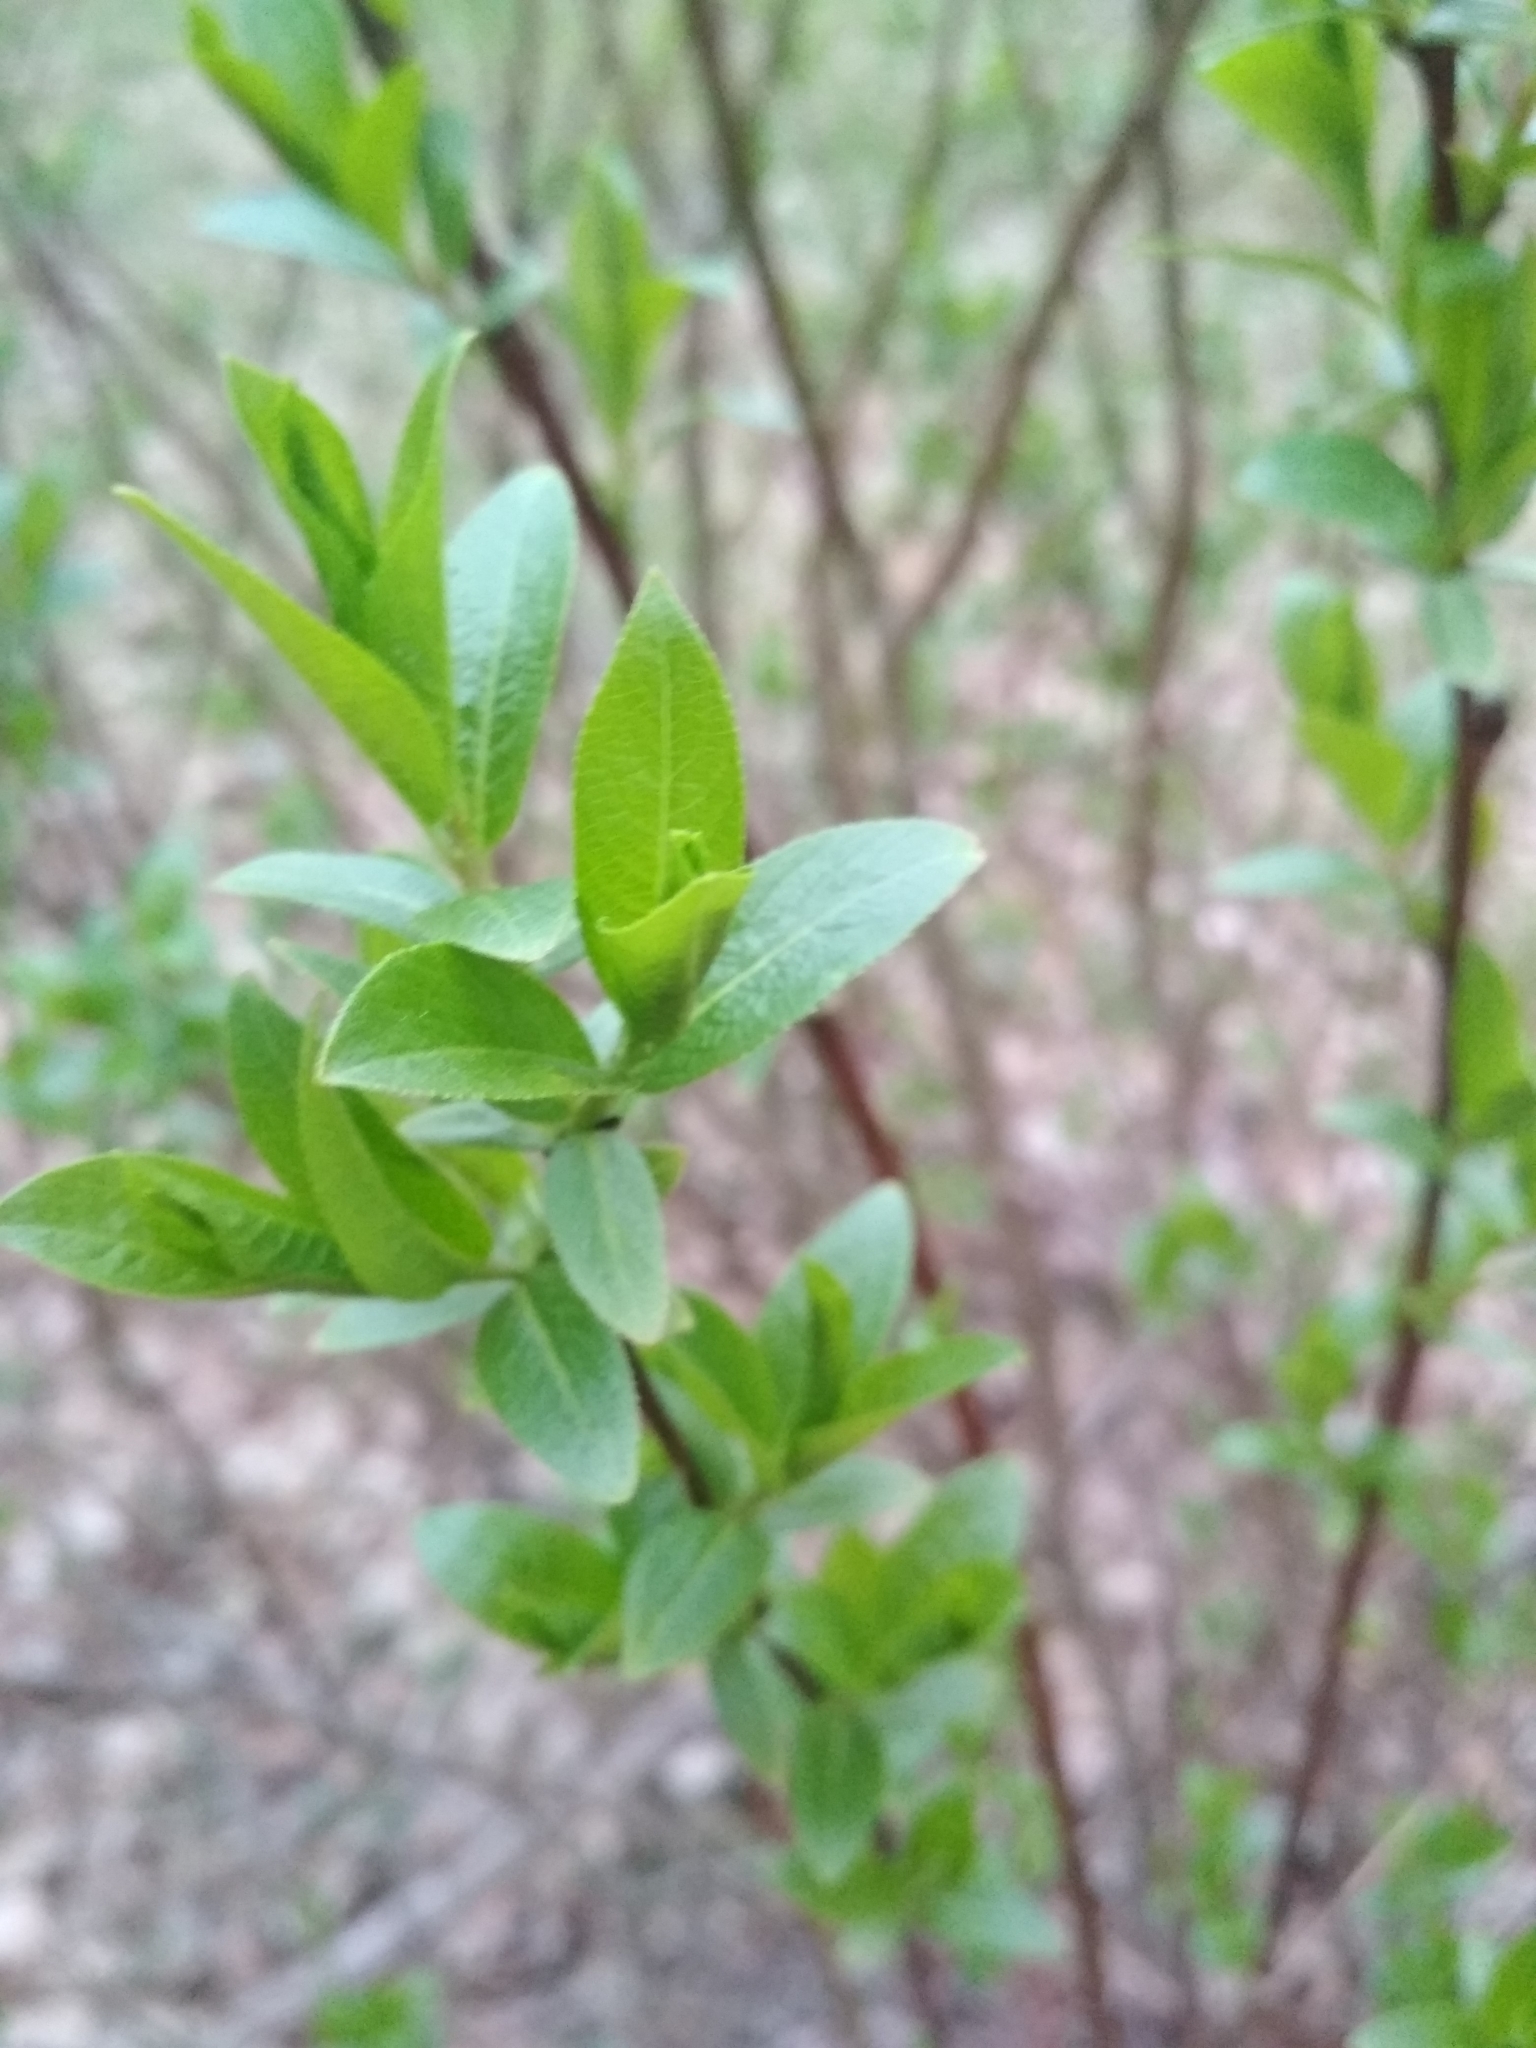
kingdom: Plantae
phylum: Tracheophyta
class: Magnoliopsida
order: Malpighiales
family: Salicaceae
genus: Salix
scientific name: Salix myrsinifolia
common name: Dark-leaved willow
